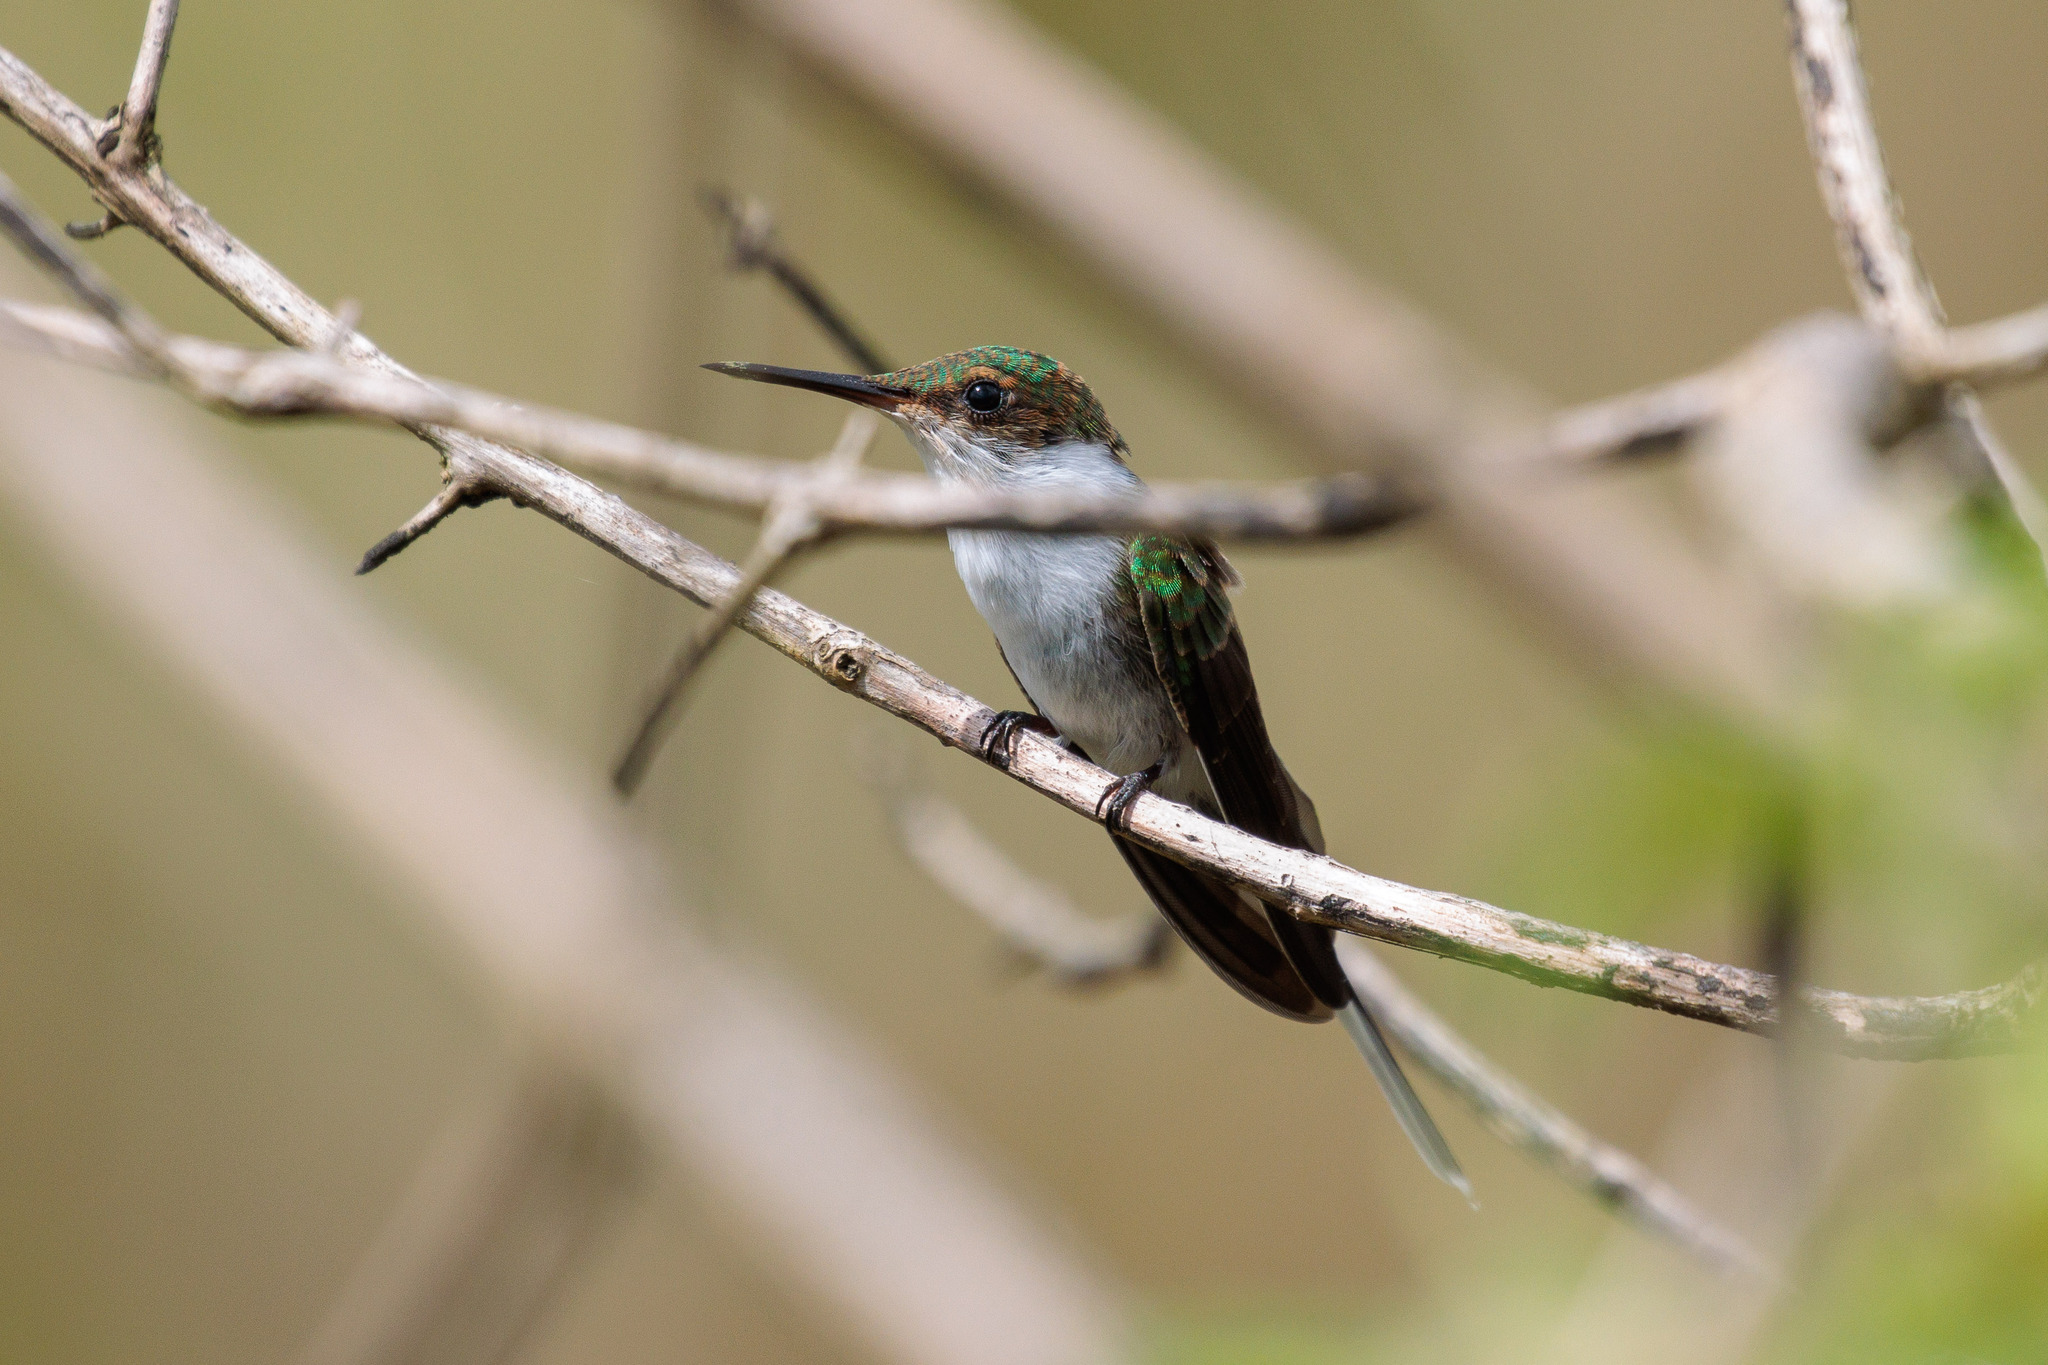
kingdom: Animalia
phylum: Chordata
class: Aves
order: Apodiformes
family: Trochilidae
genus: Heliactin
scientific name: Heliactin bilophus
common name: Horned sungem
